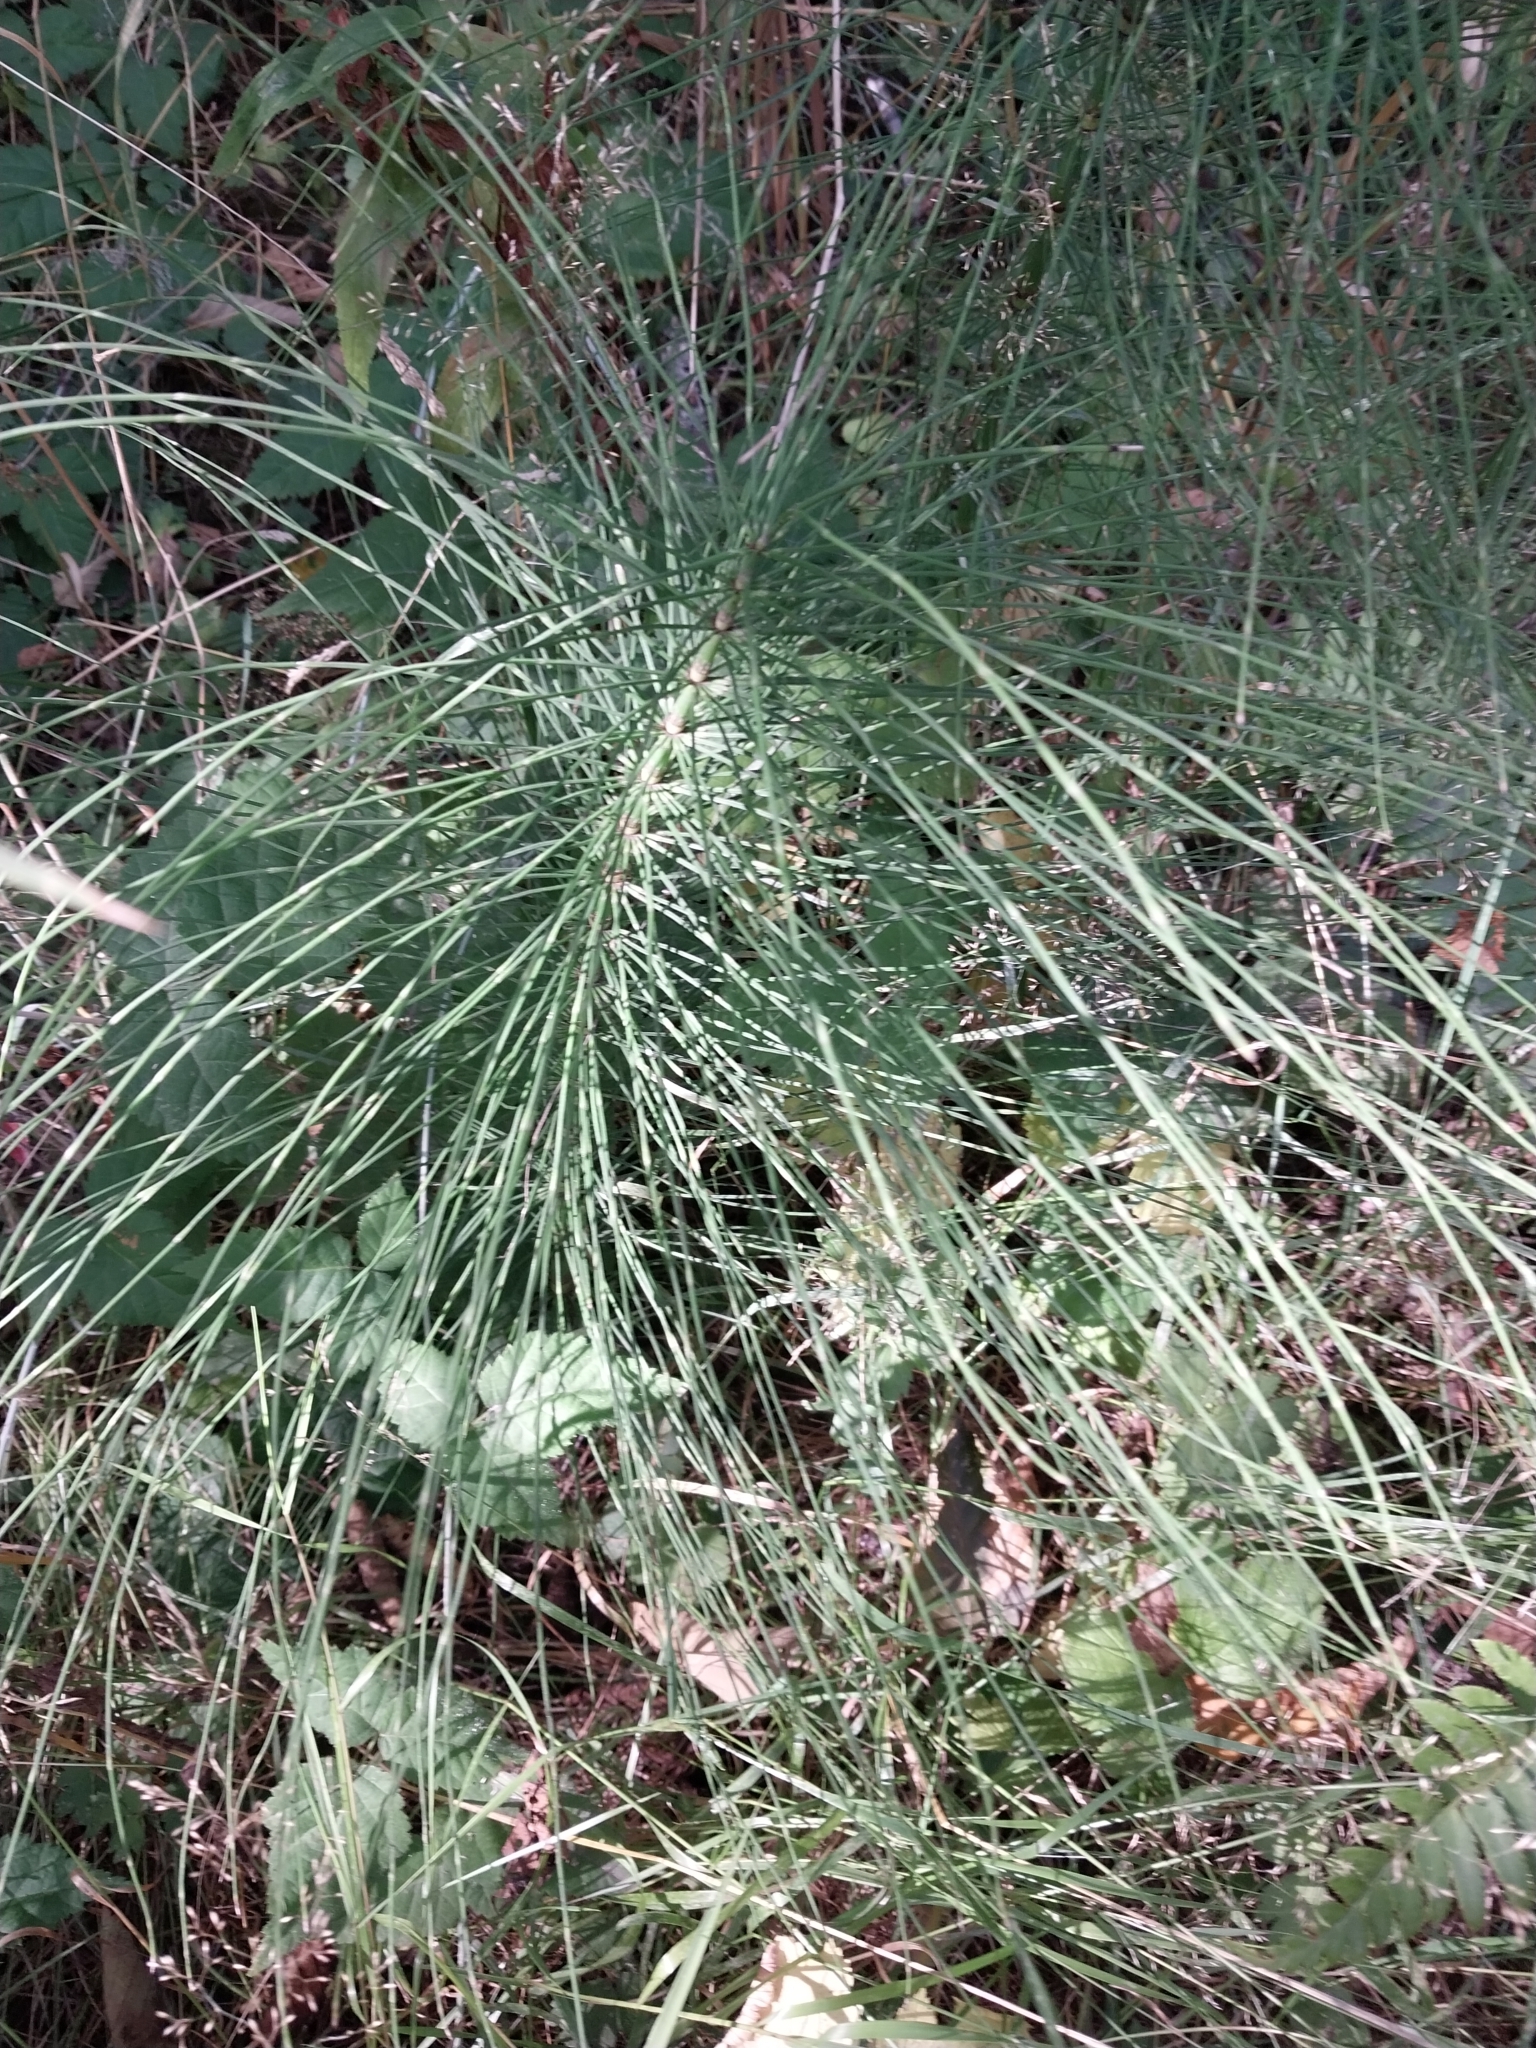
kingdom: Plantae
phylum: Tracheophyta
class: Polypodiopsida
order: Equisetales
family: Equisetaceae
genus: Equisetum
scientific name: Equisetum telmateia
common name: Great horsetail
